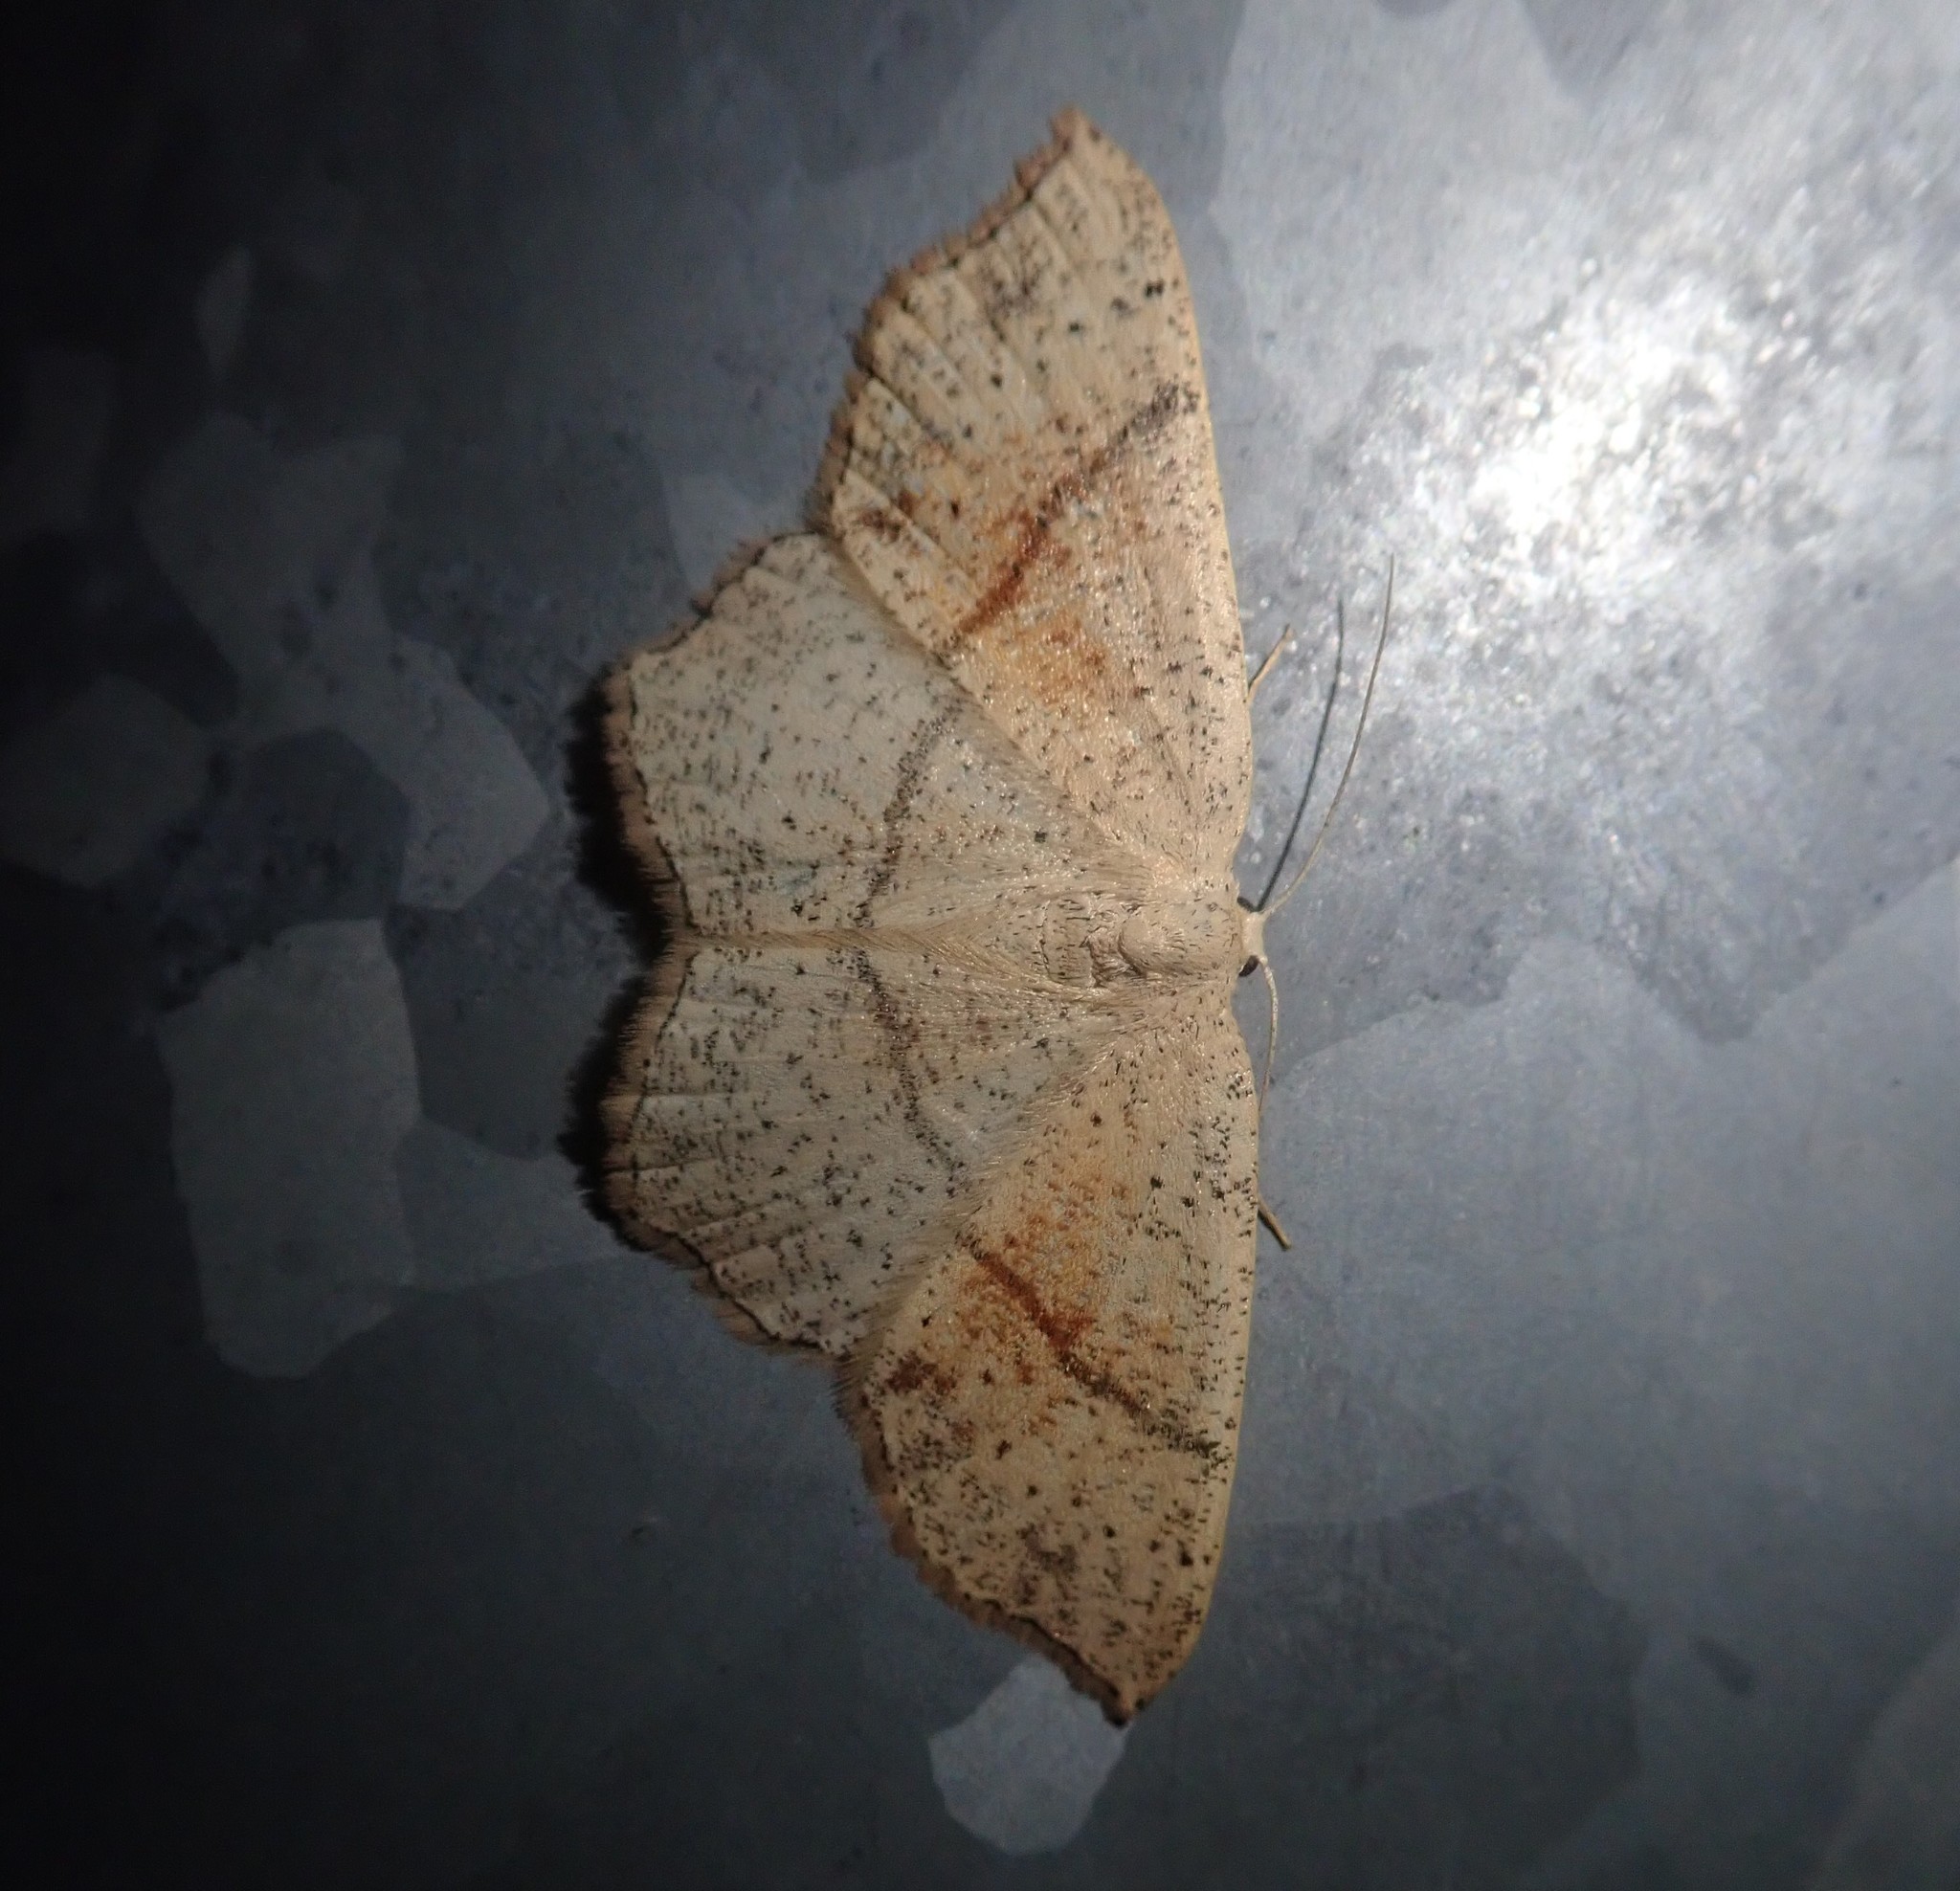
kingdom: Animalia
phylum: Arthropoda
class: Insecta
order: Lepidoptera
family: Geometridae
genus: Cyclophora
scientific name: Cyclophora punctaria
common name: Maiden's blush
